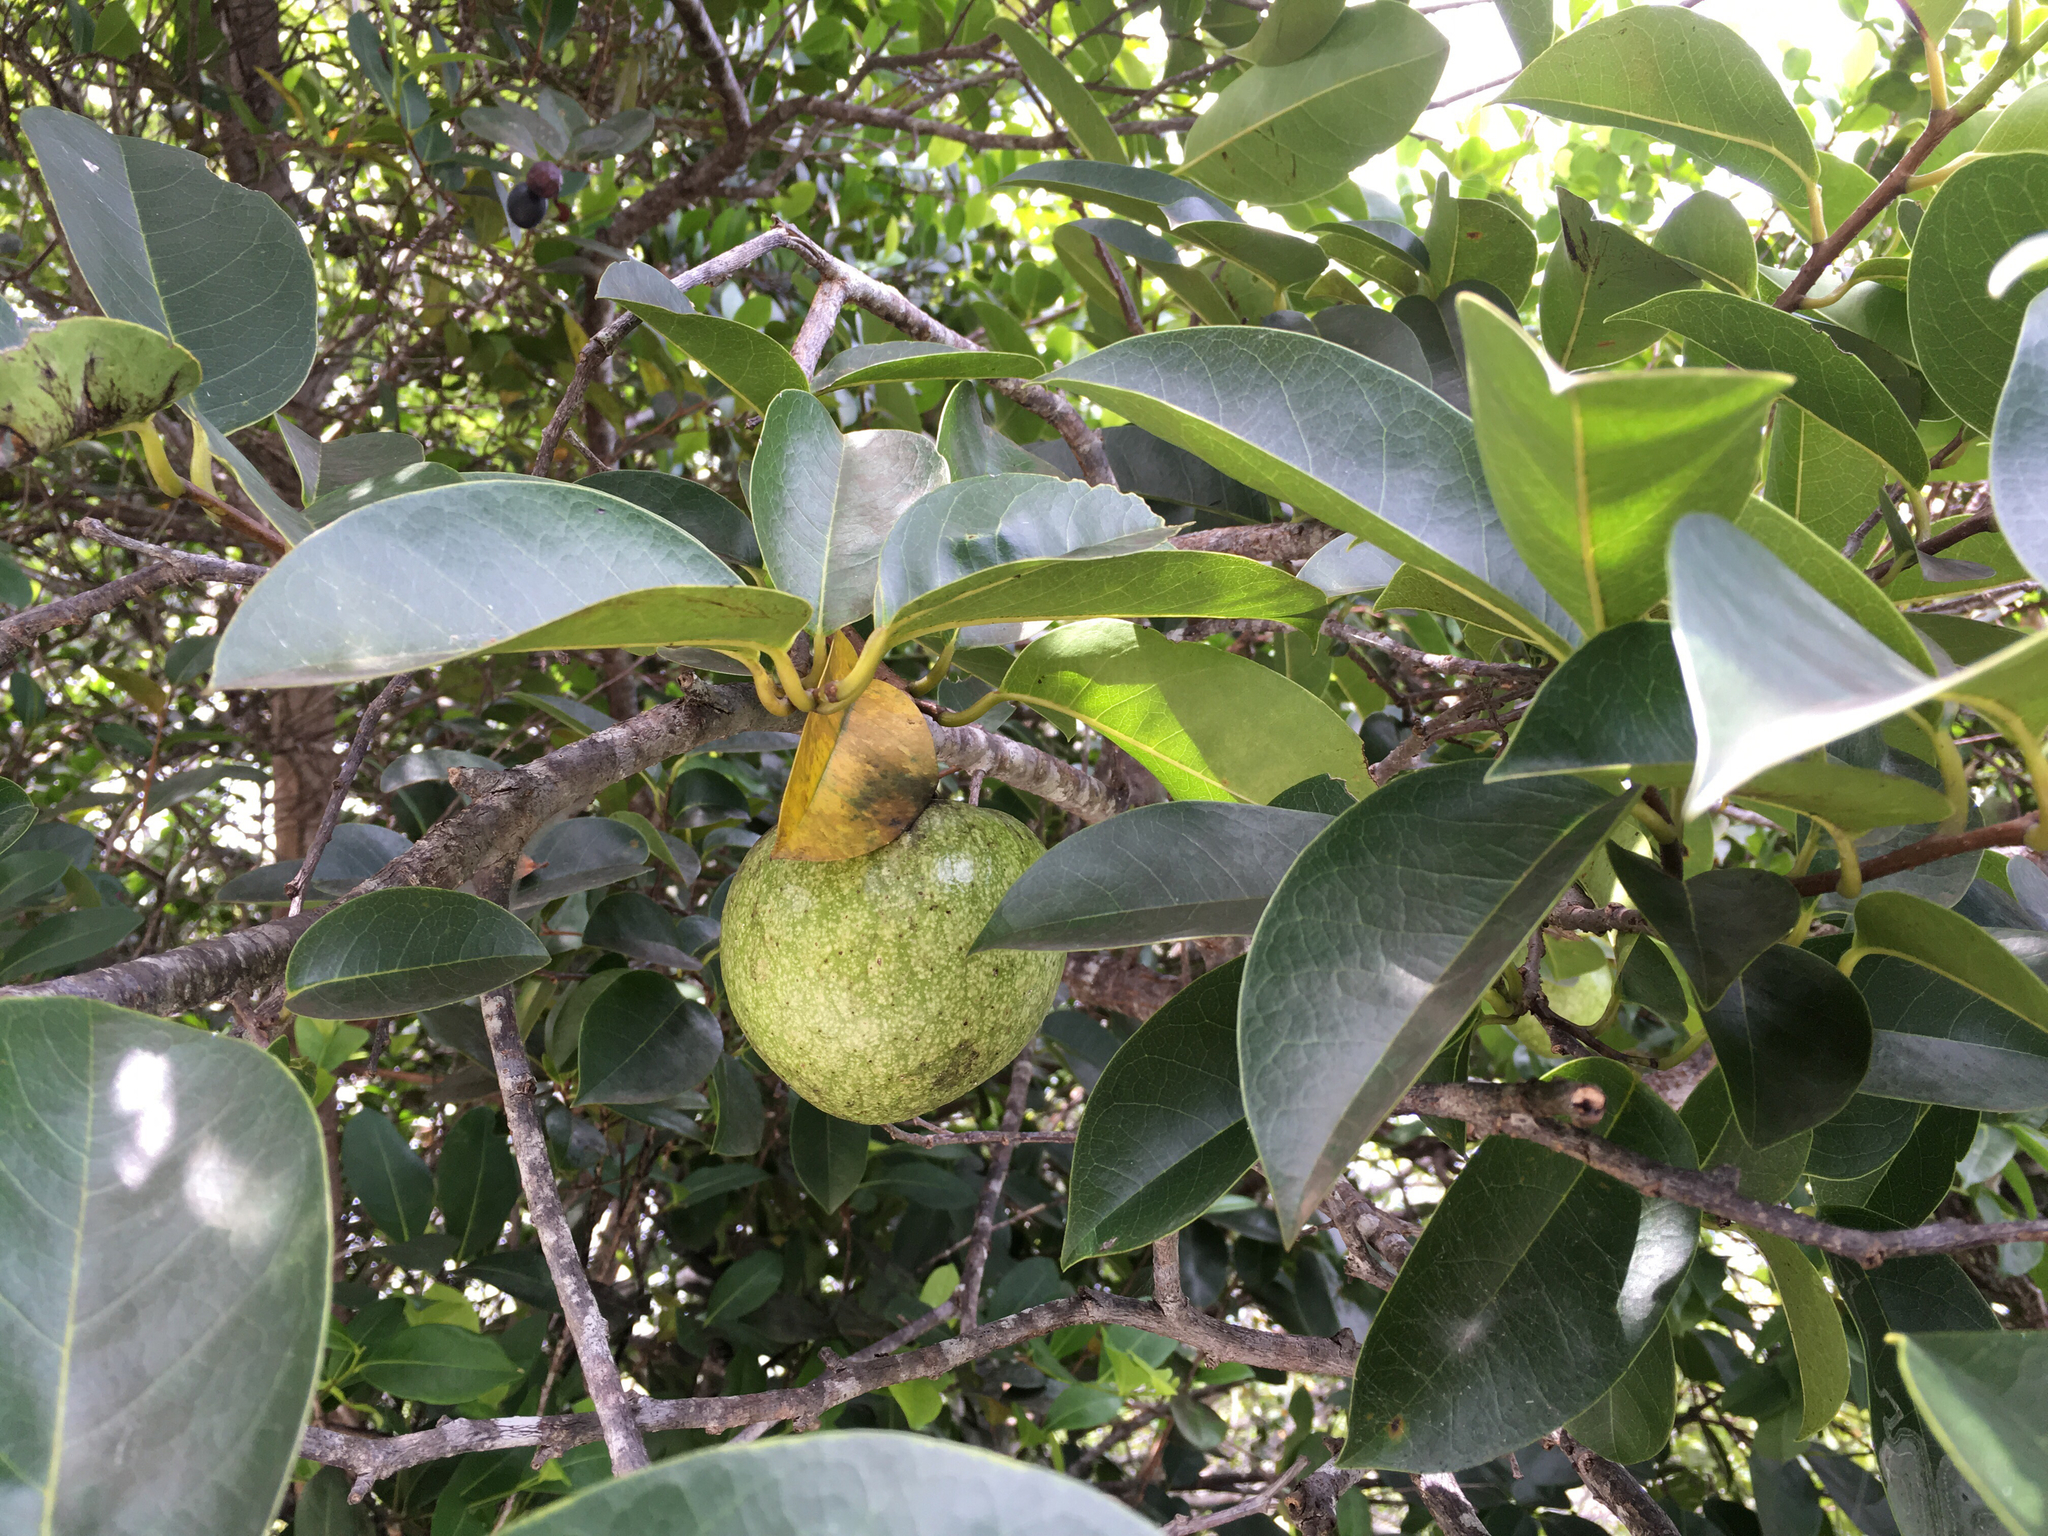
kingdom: Plantae
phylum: Tracheophyta
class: Magnoliopsida
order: Magnoliales
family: Annonaceae
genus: Annona
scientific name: Annona glabra
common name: Monkey apple
